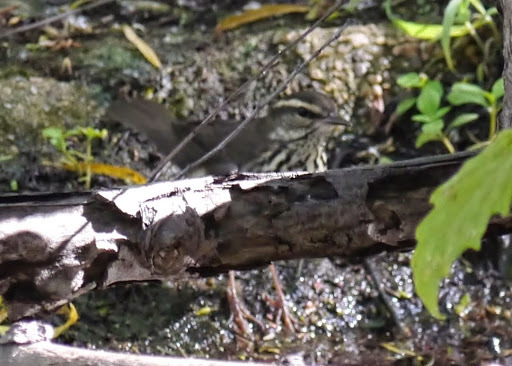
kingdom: Animalia
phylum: Chordata
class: Aves
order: Passeriformes
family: Parulidae
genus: Parkesia
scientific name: Parkesia noveboracensis
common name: Northern waterthrush
